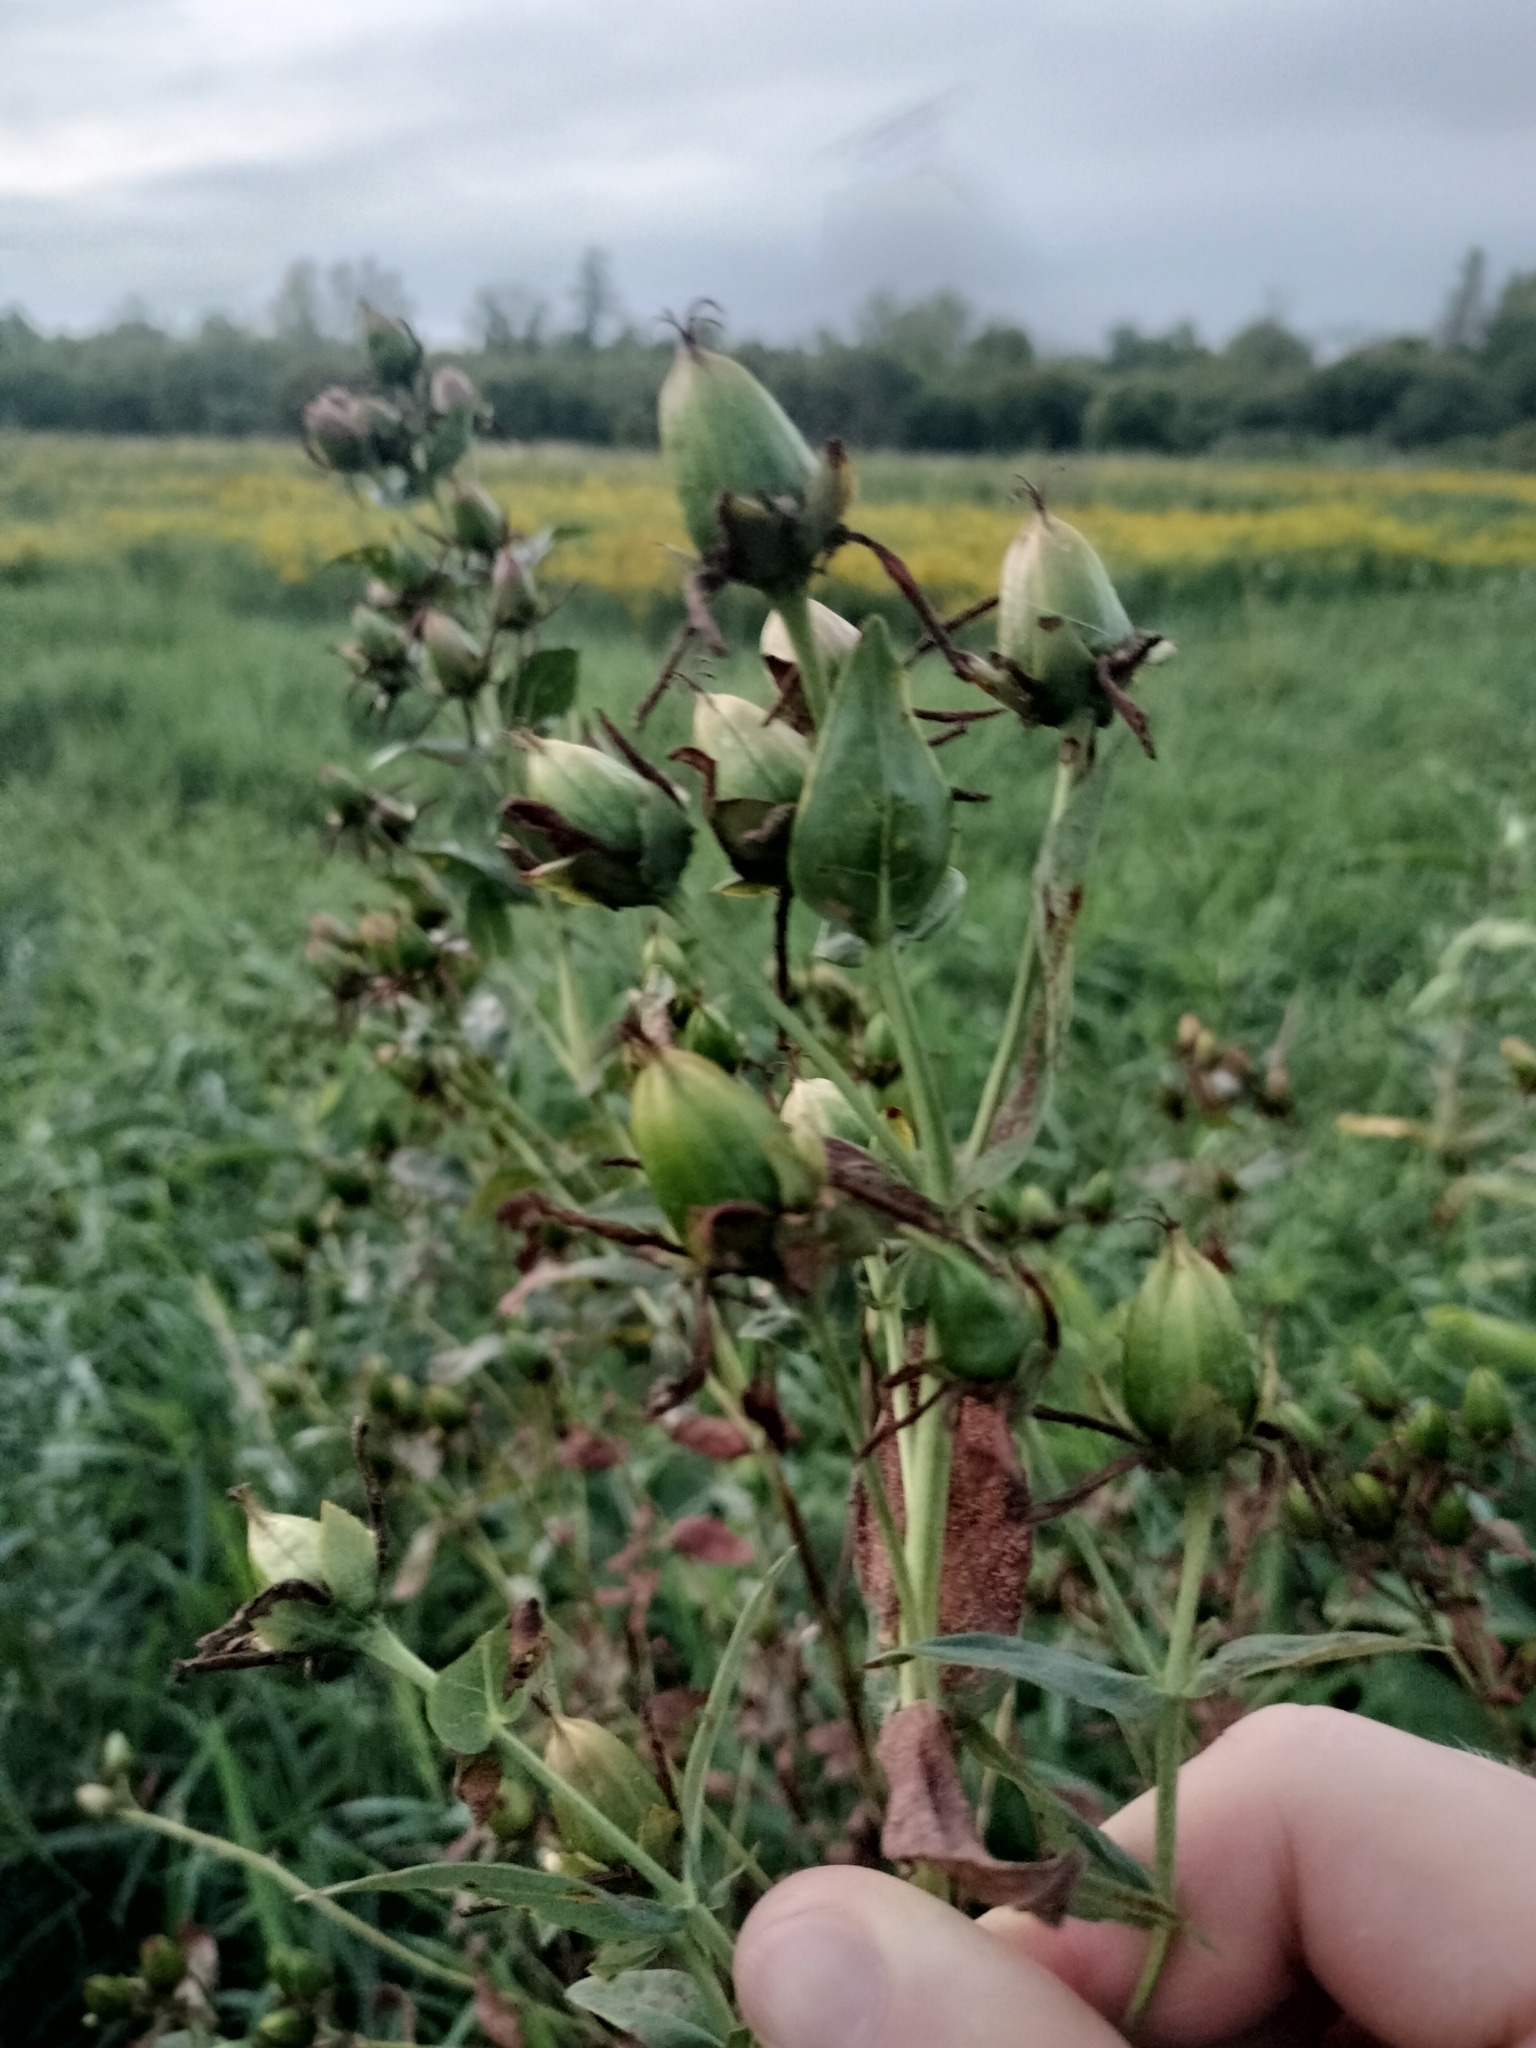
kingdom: Plantae
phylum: Tracheophyta
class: Magnoliopsida
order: Malpighiales
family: Hypericaceae
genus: Hypericum
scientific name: Hypericum ascyron
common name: Giant st. john's-wort
